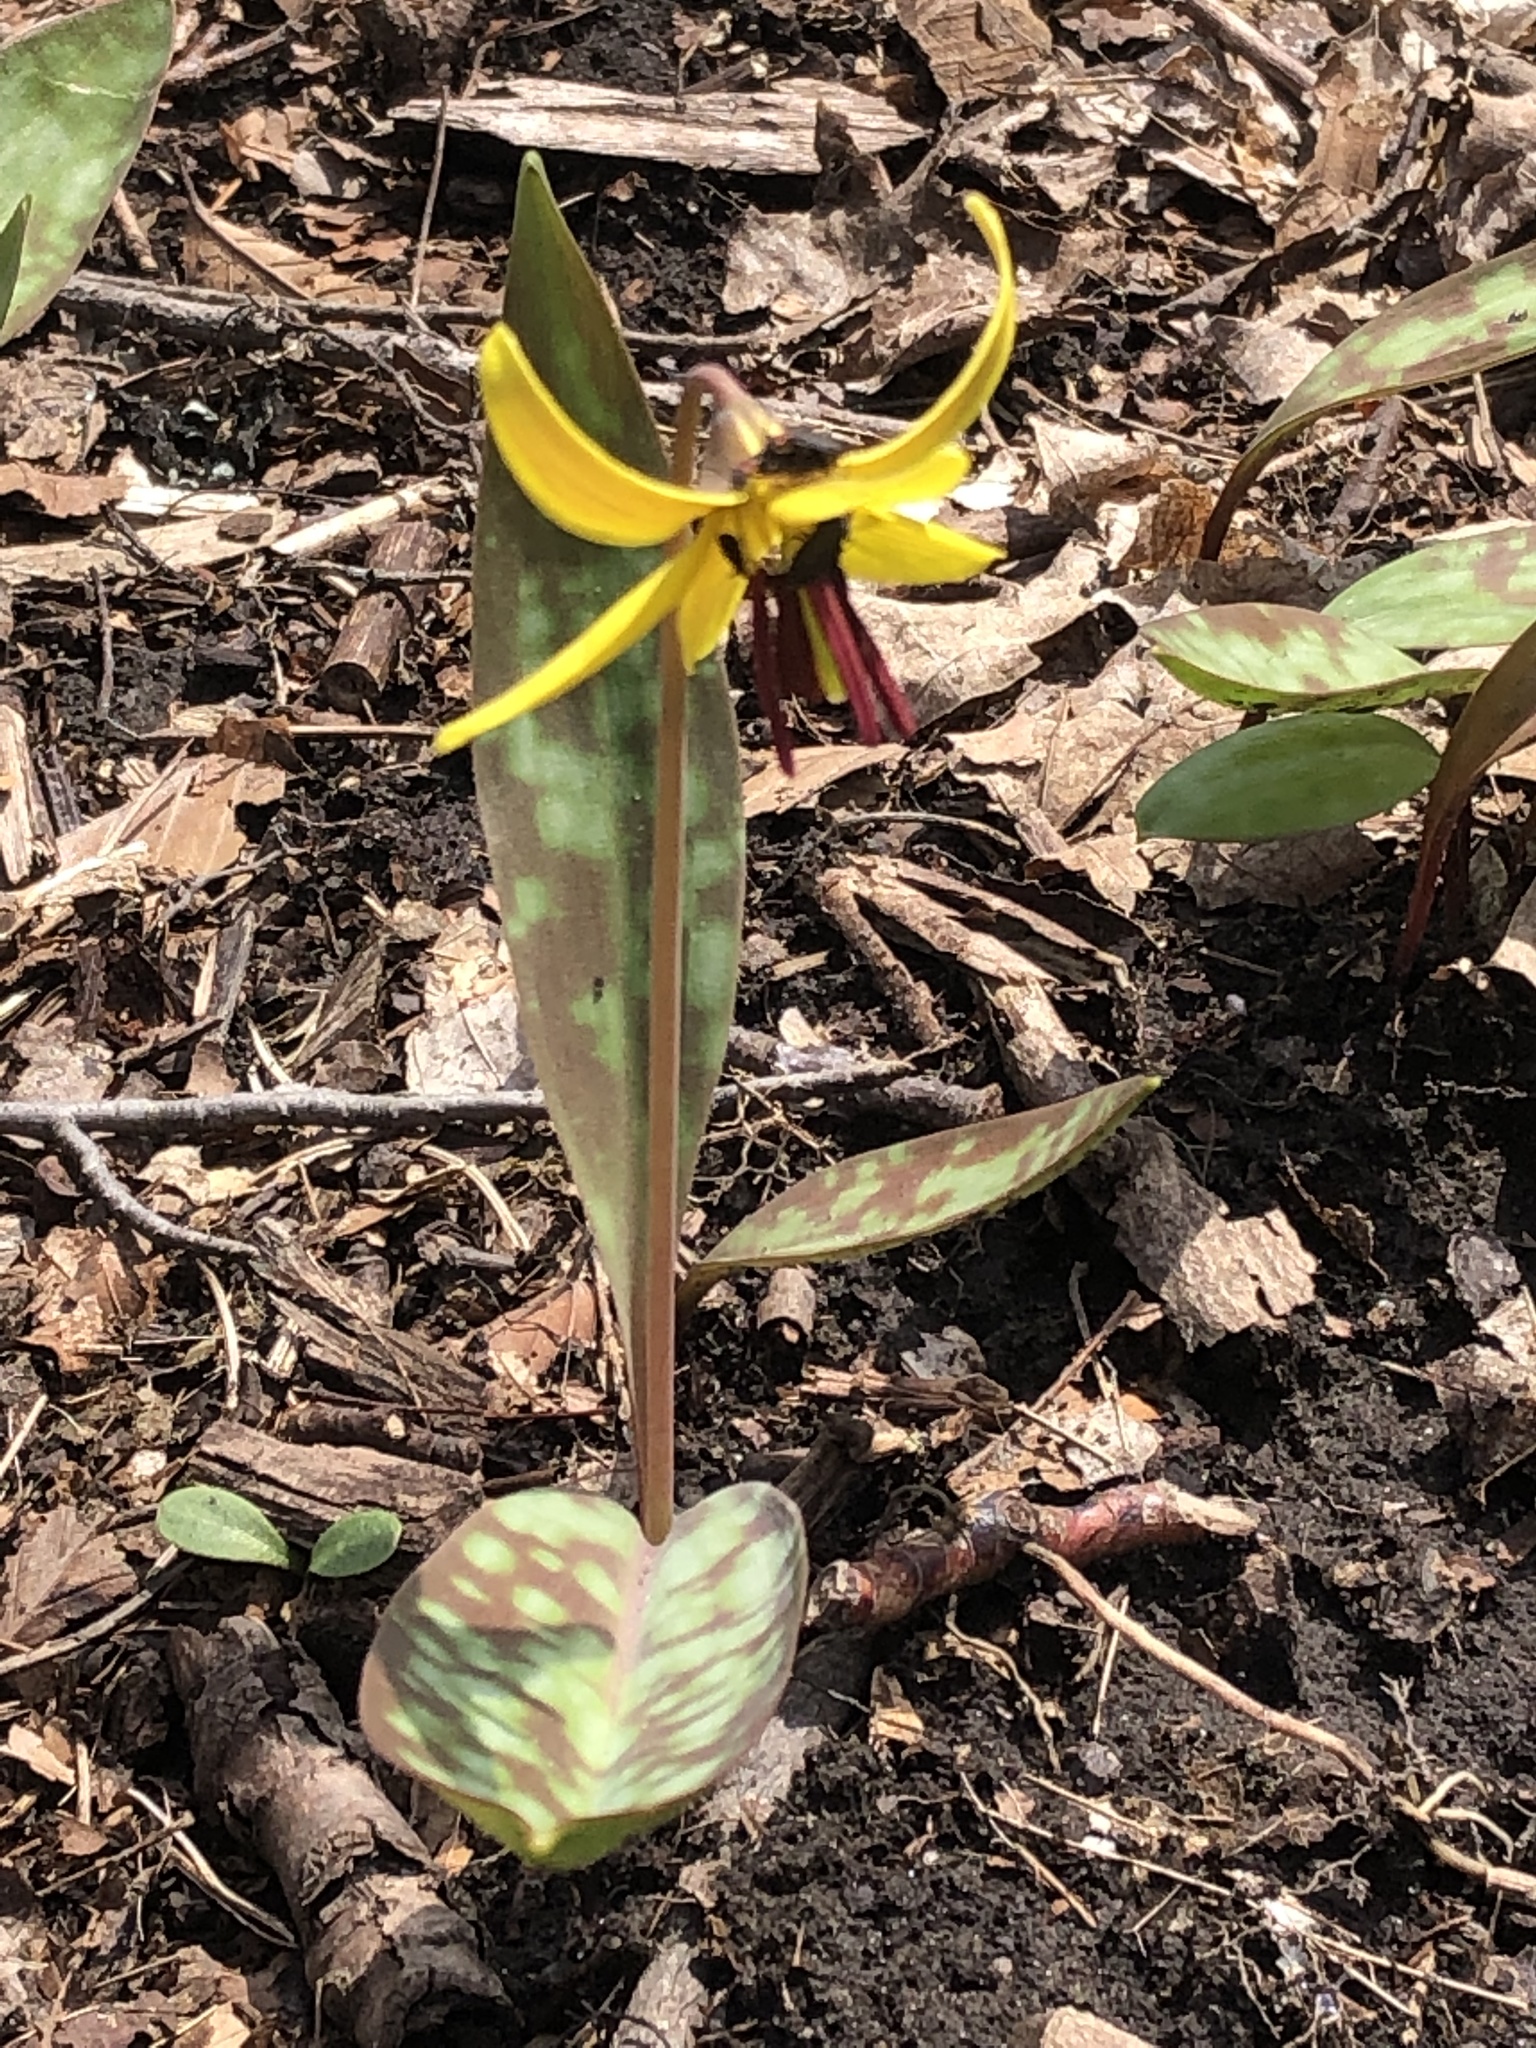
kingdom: Plantae
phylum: Tracheophyta
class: Liliopsida
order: Liliales
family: Liliaceae
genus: Erythronium
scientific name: Erythronium americanum
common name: Yellow adder's-tongue
